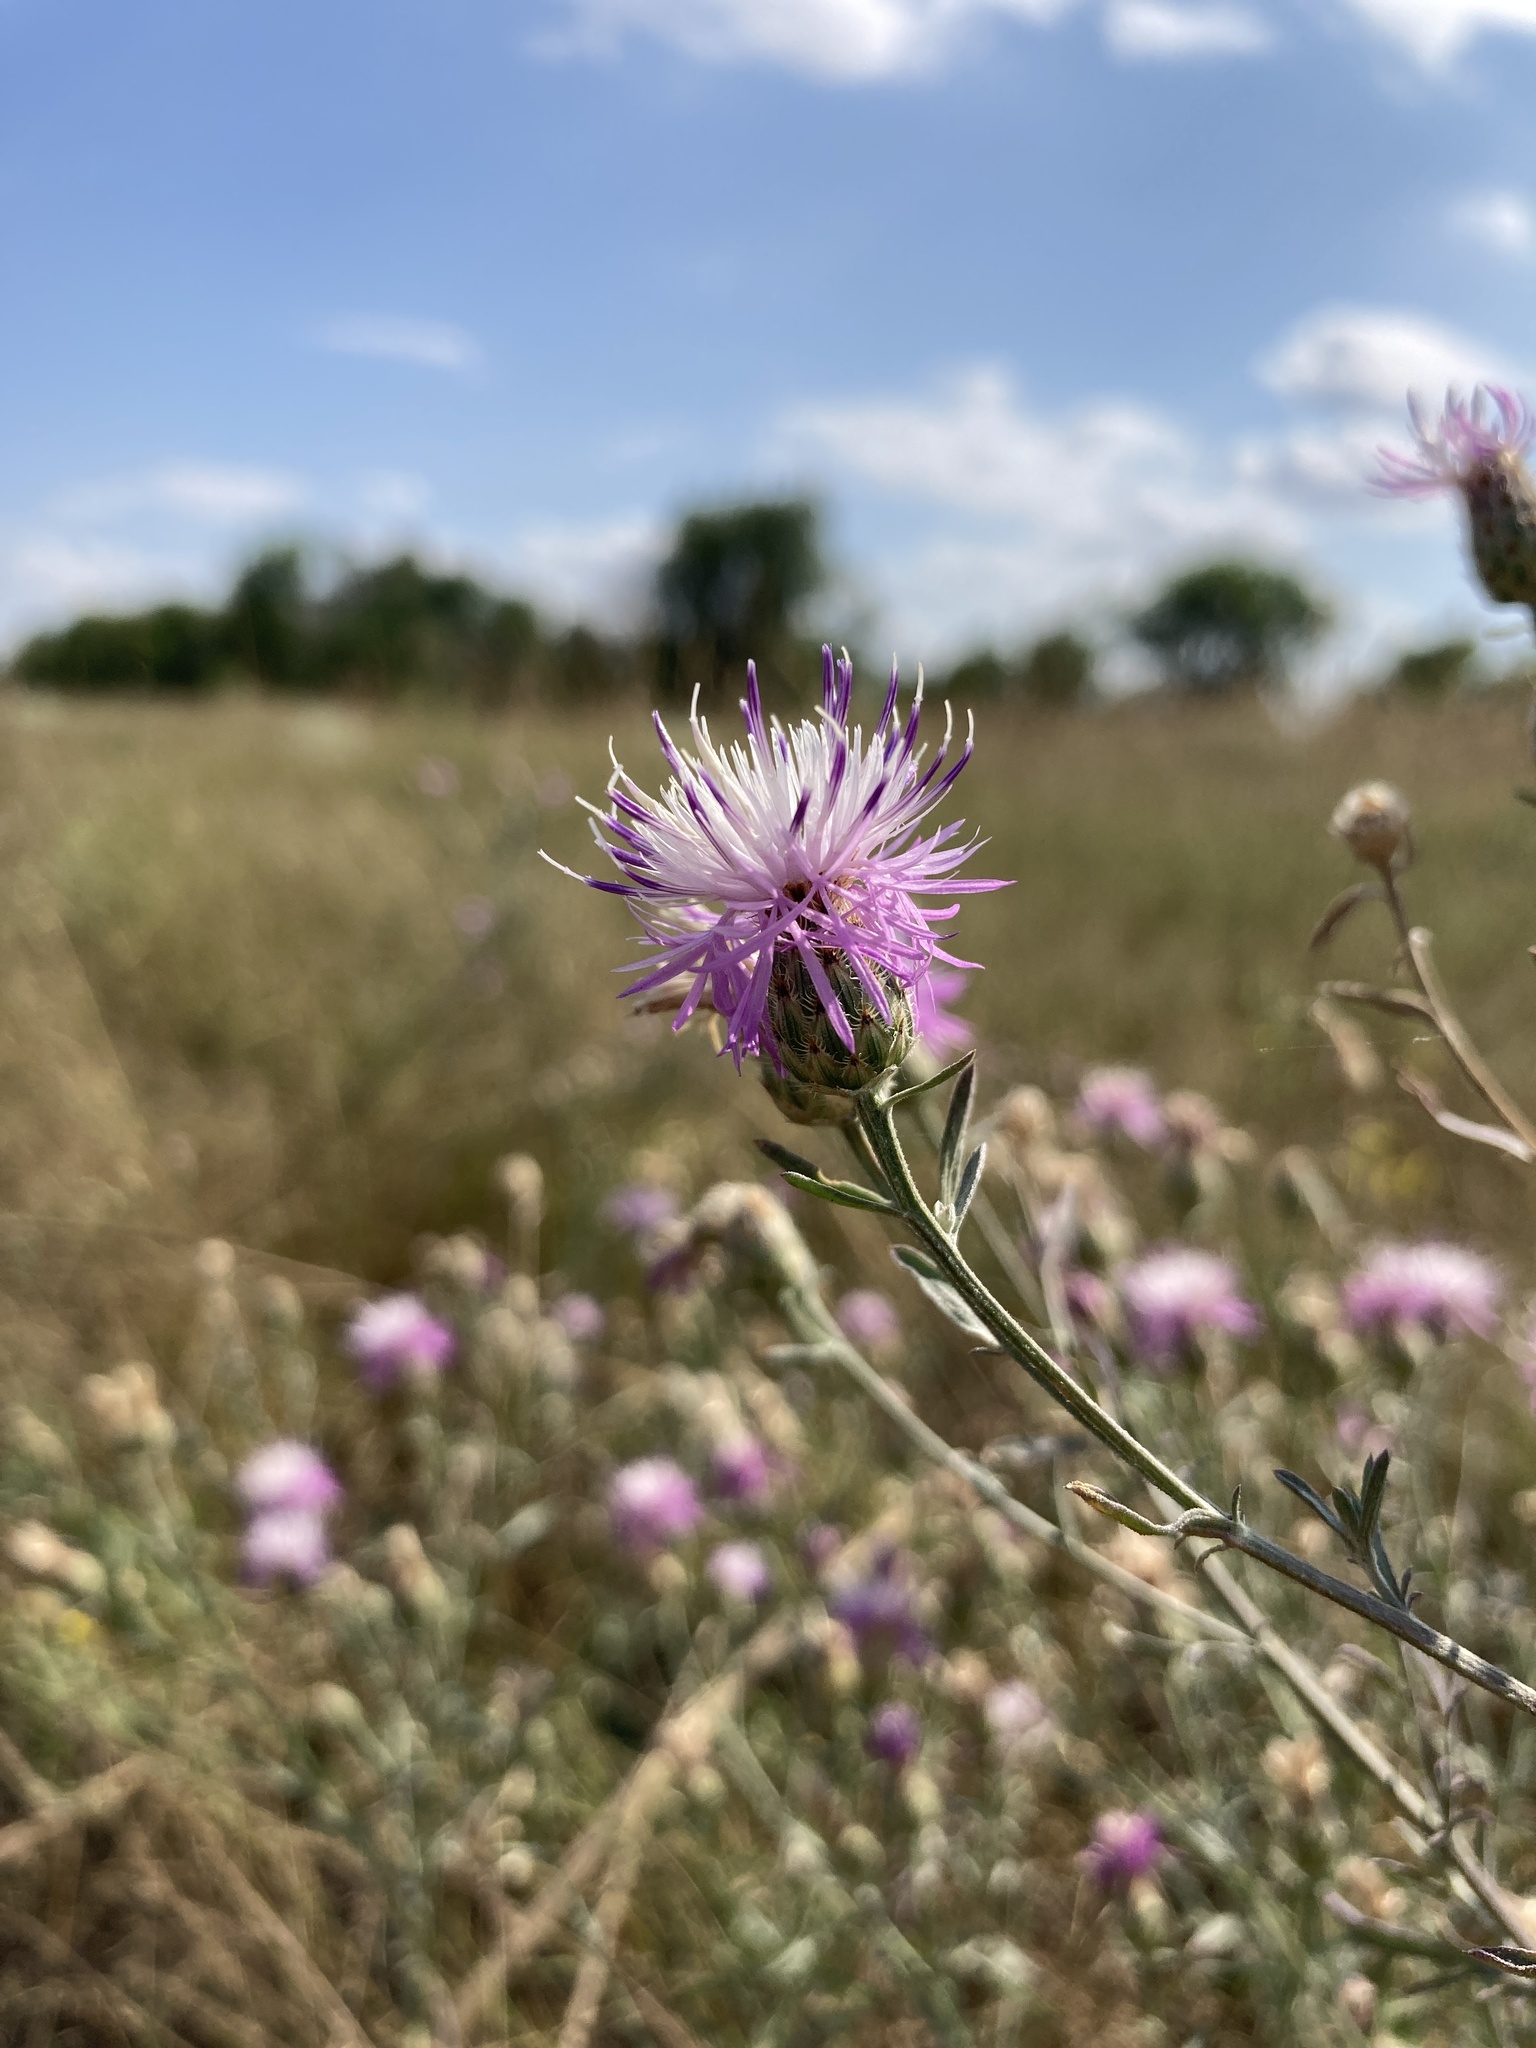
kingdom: Plantae
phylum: Tracheophyta
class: Magnoliopsida
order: Asterales
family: Asteraceae
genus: Centaurea
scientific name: Centaurea stoebe
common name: Spotted knapweed
